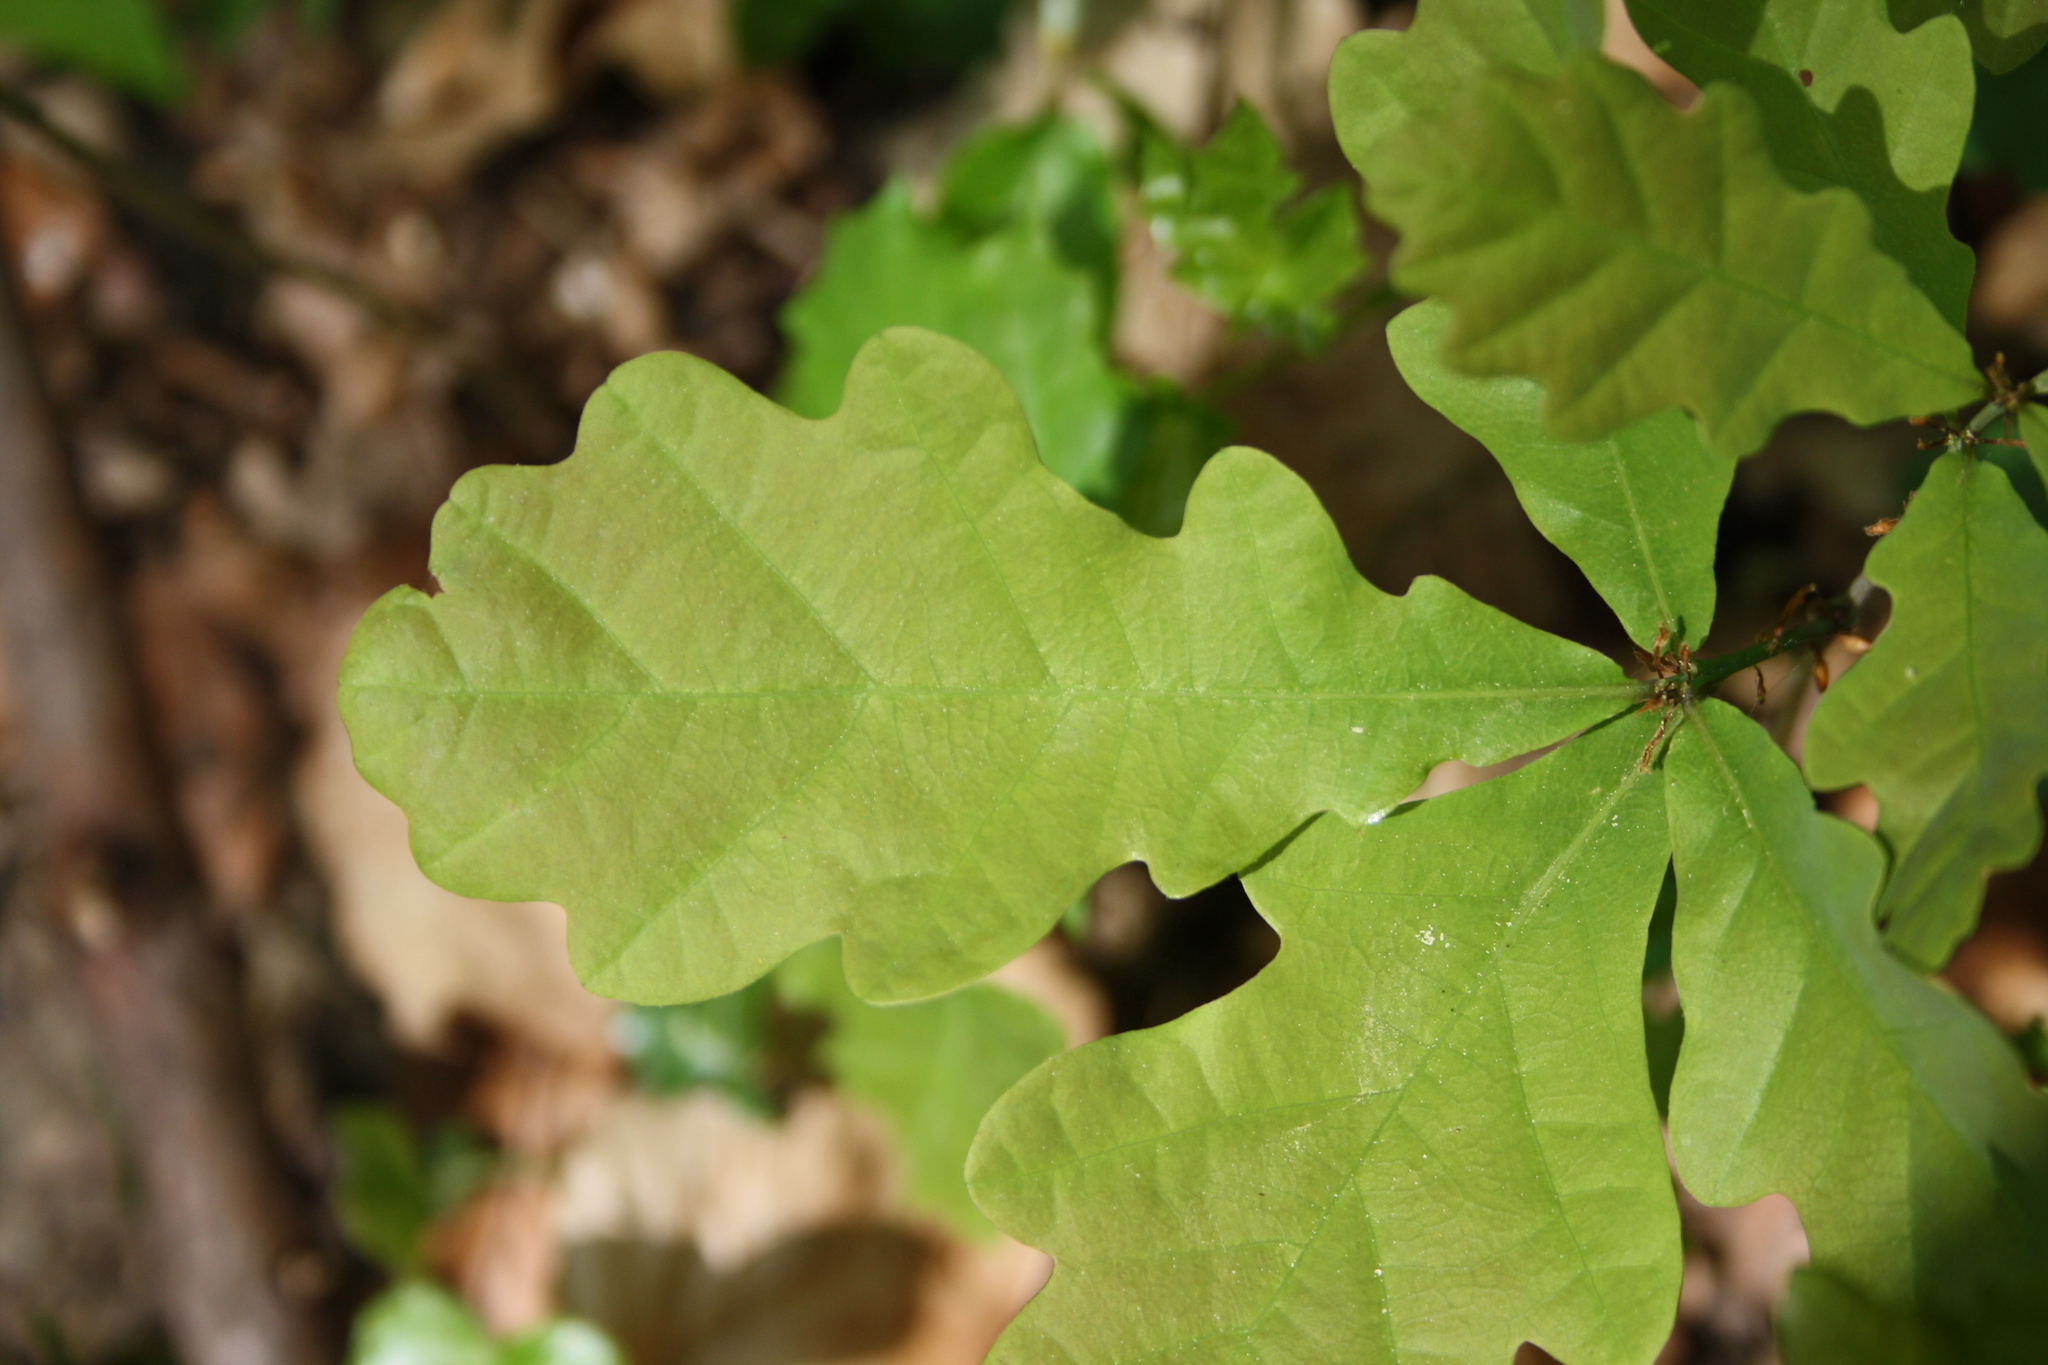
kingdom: Plantae
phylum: Tracheophyta
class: Magnoliopsida
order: Fagales
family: Fagaceae
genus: Quercus
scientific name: Quercus robur
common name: Pedunculate oak
